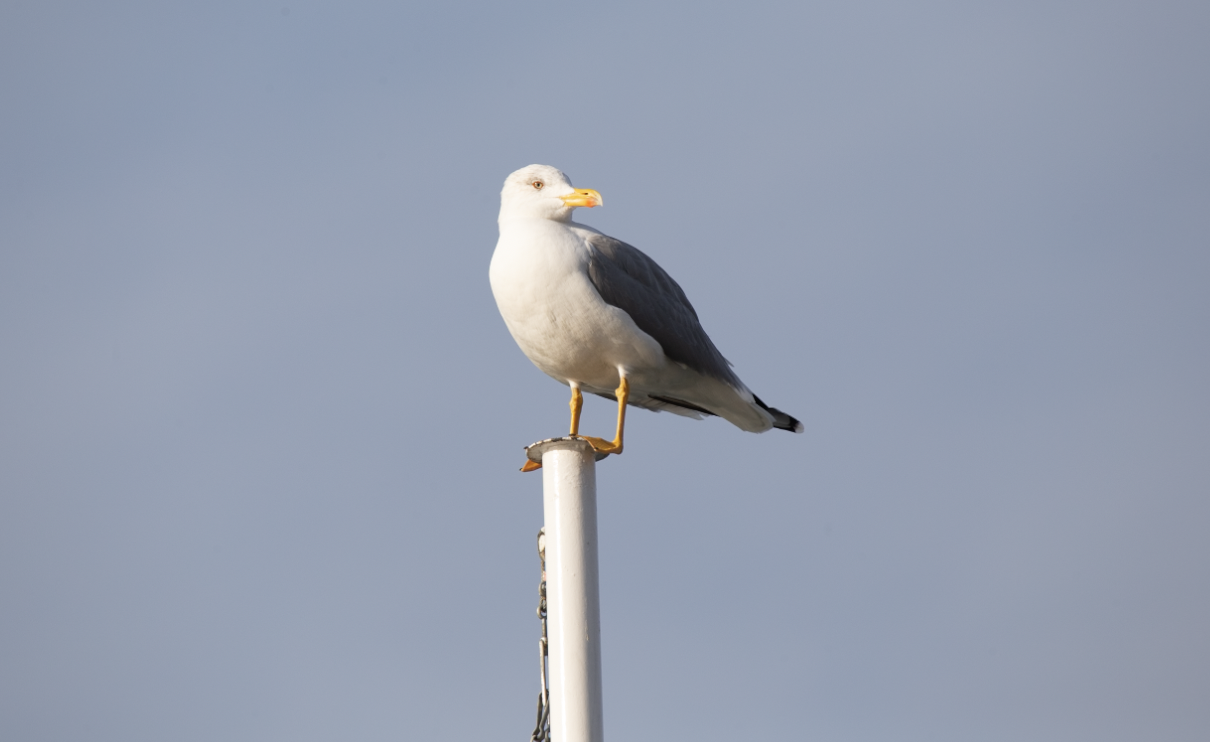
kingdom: Animalia
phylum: Chordata
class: Aves
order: Charadriiformes
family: Laridae
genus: Larus
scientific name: Larus michahellis
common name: Yellow-legged gull
